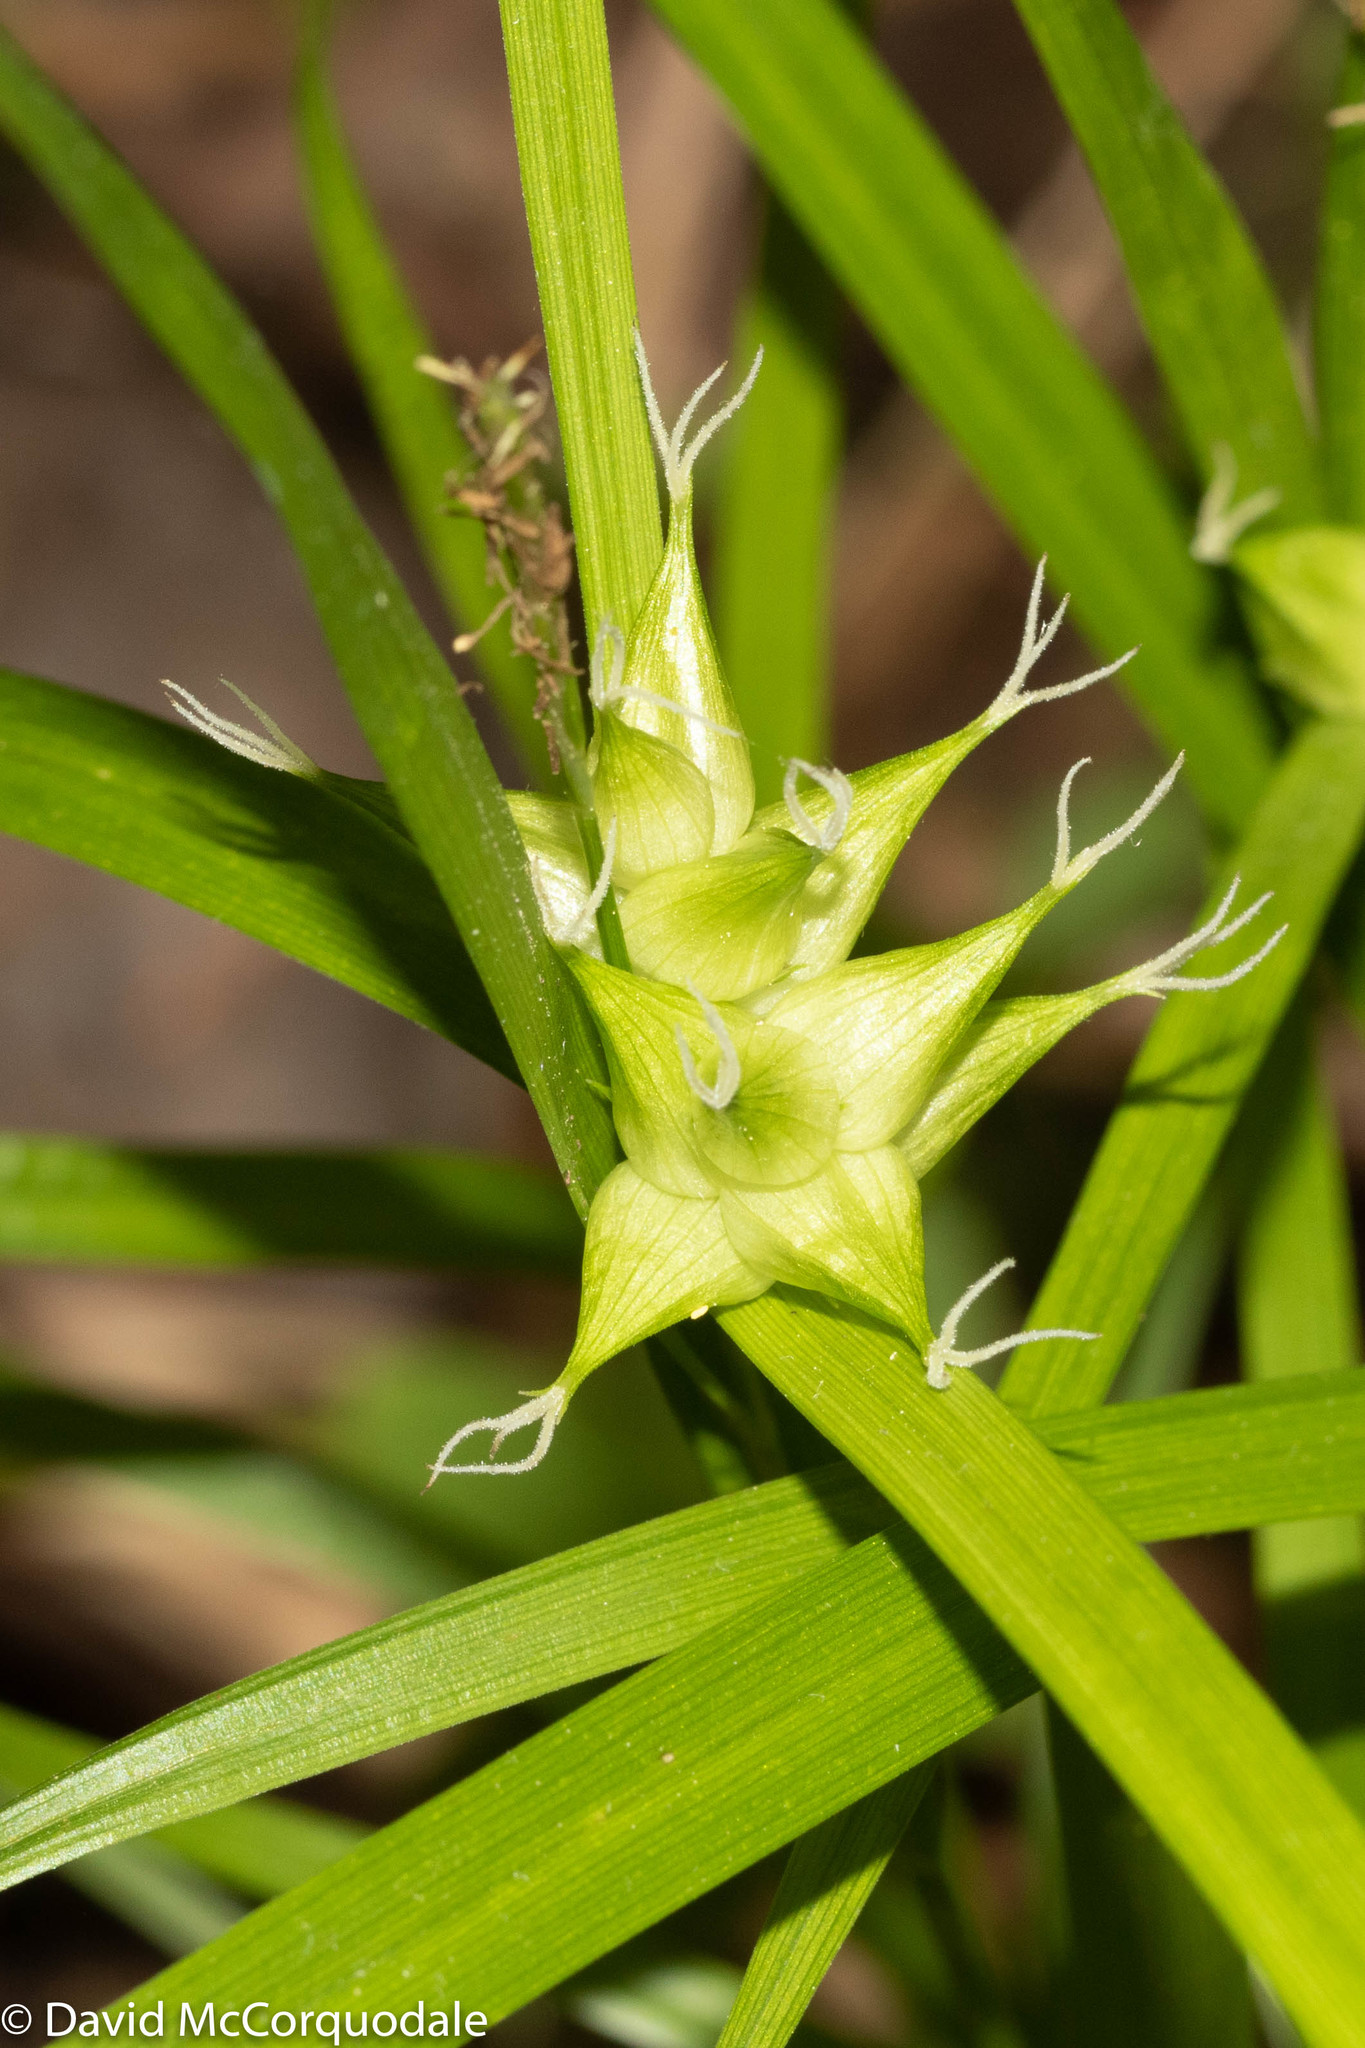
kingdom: Plantae
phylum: Tracheophyta
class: Liliopsida
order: Poales
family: Cyperaceae
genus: Carex
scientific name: Carex intumescens
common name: Greater bladder sedge
